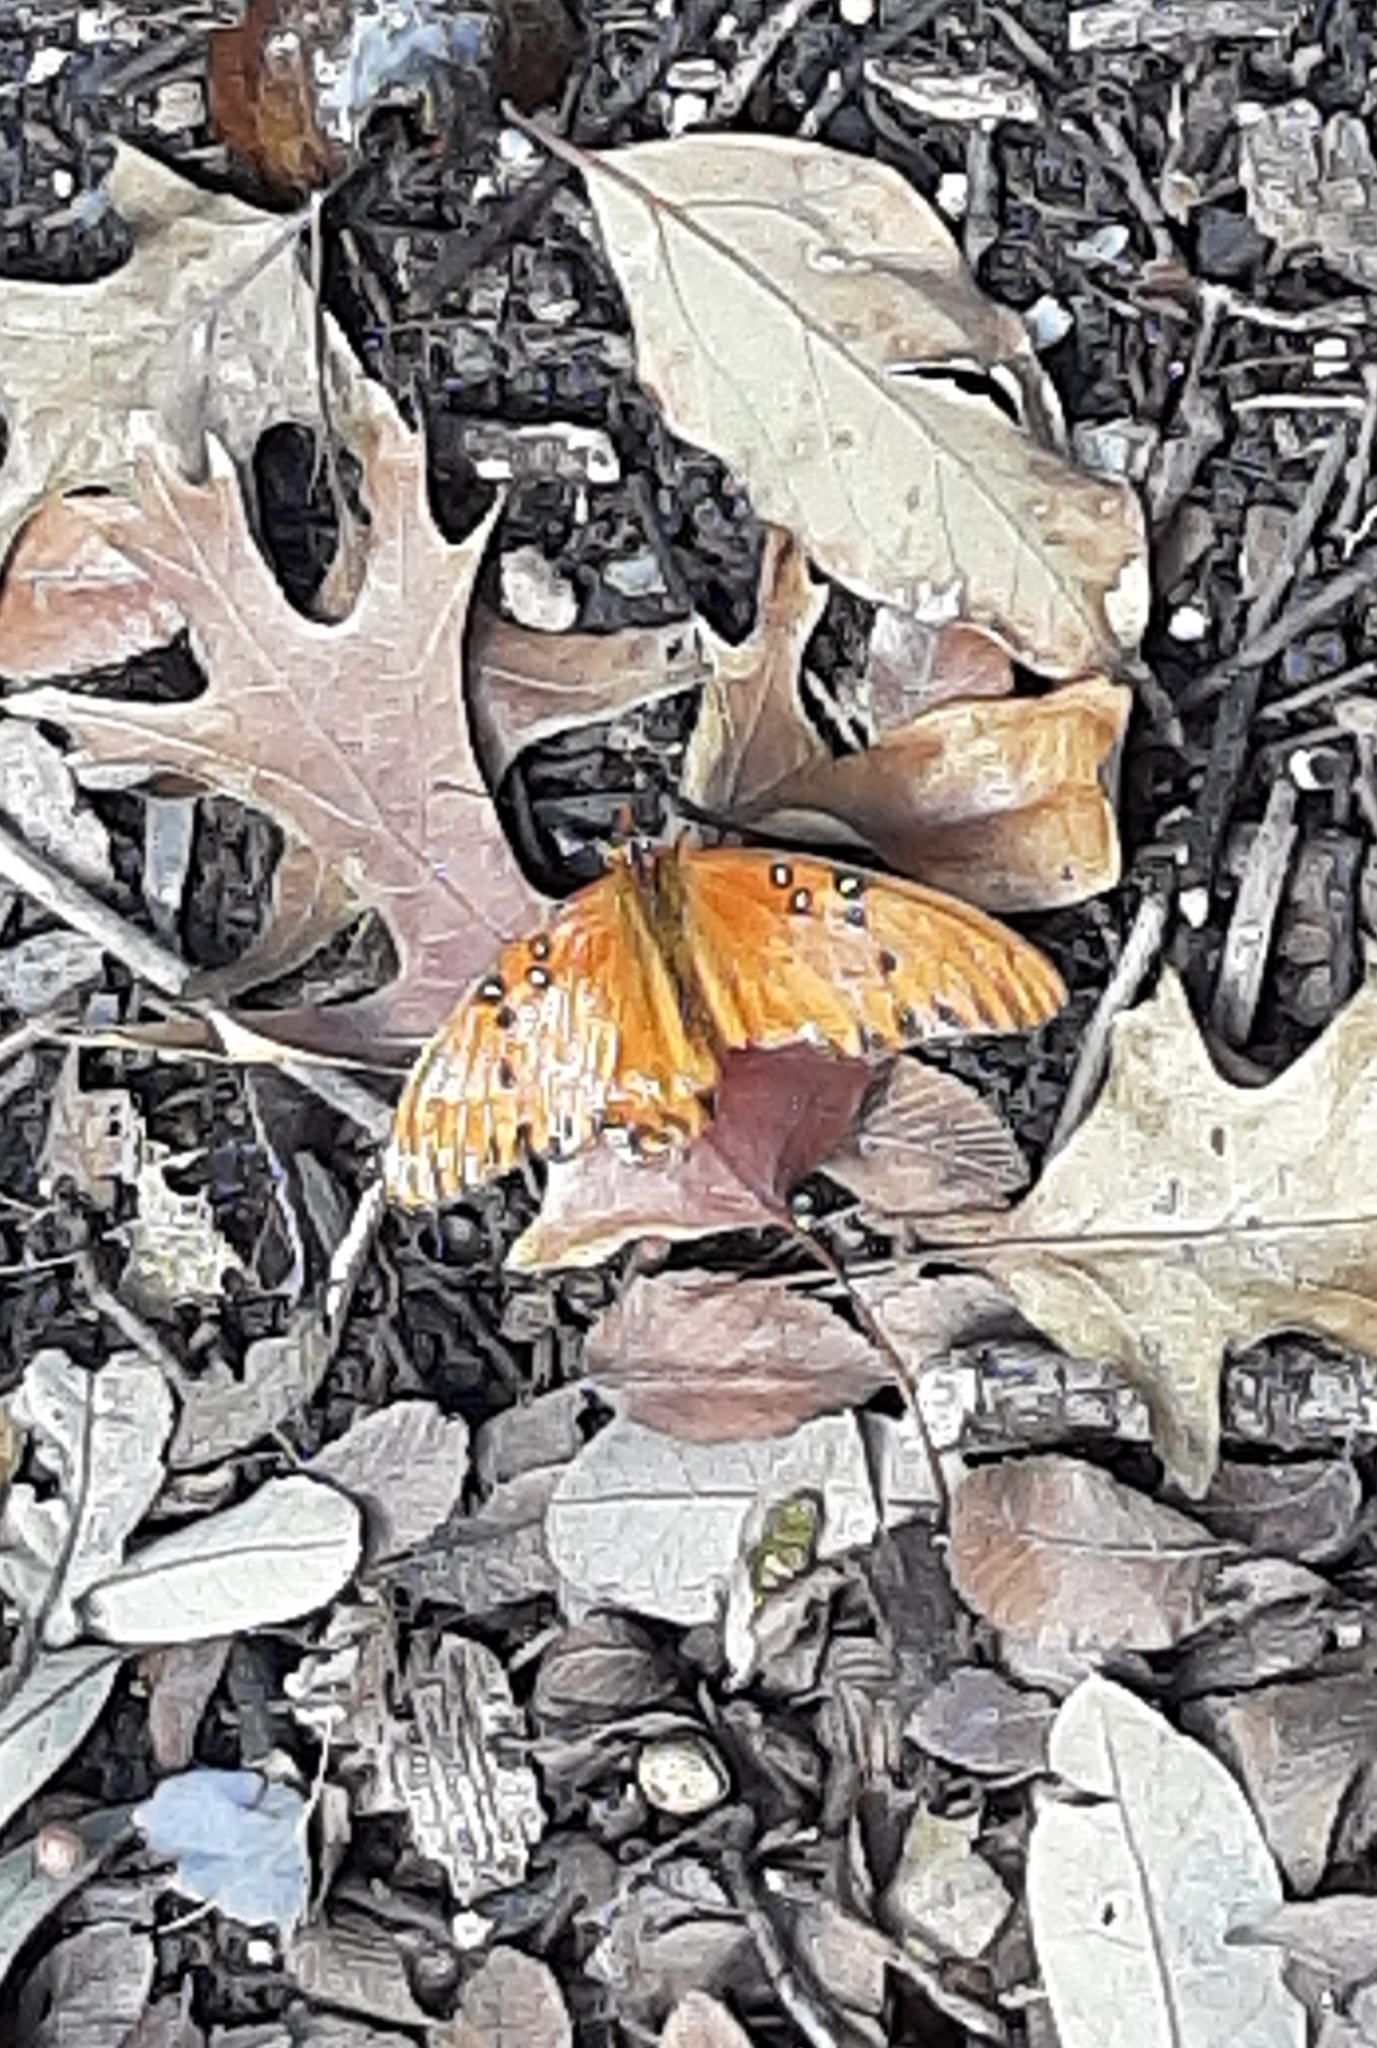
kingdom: Animalia
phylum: Arthropoda
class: Insecta
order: Lepidoptera
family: Nymphalidae
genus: Dione
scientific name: Dione vanillae
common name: Gulf fritillary
